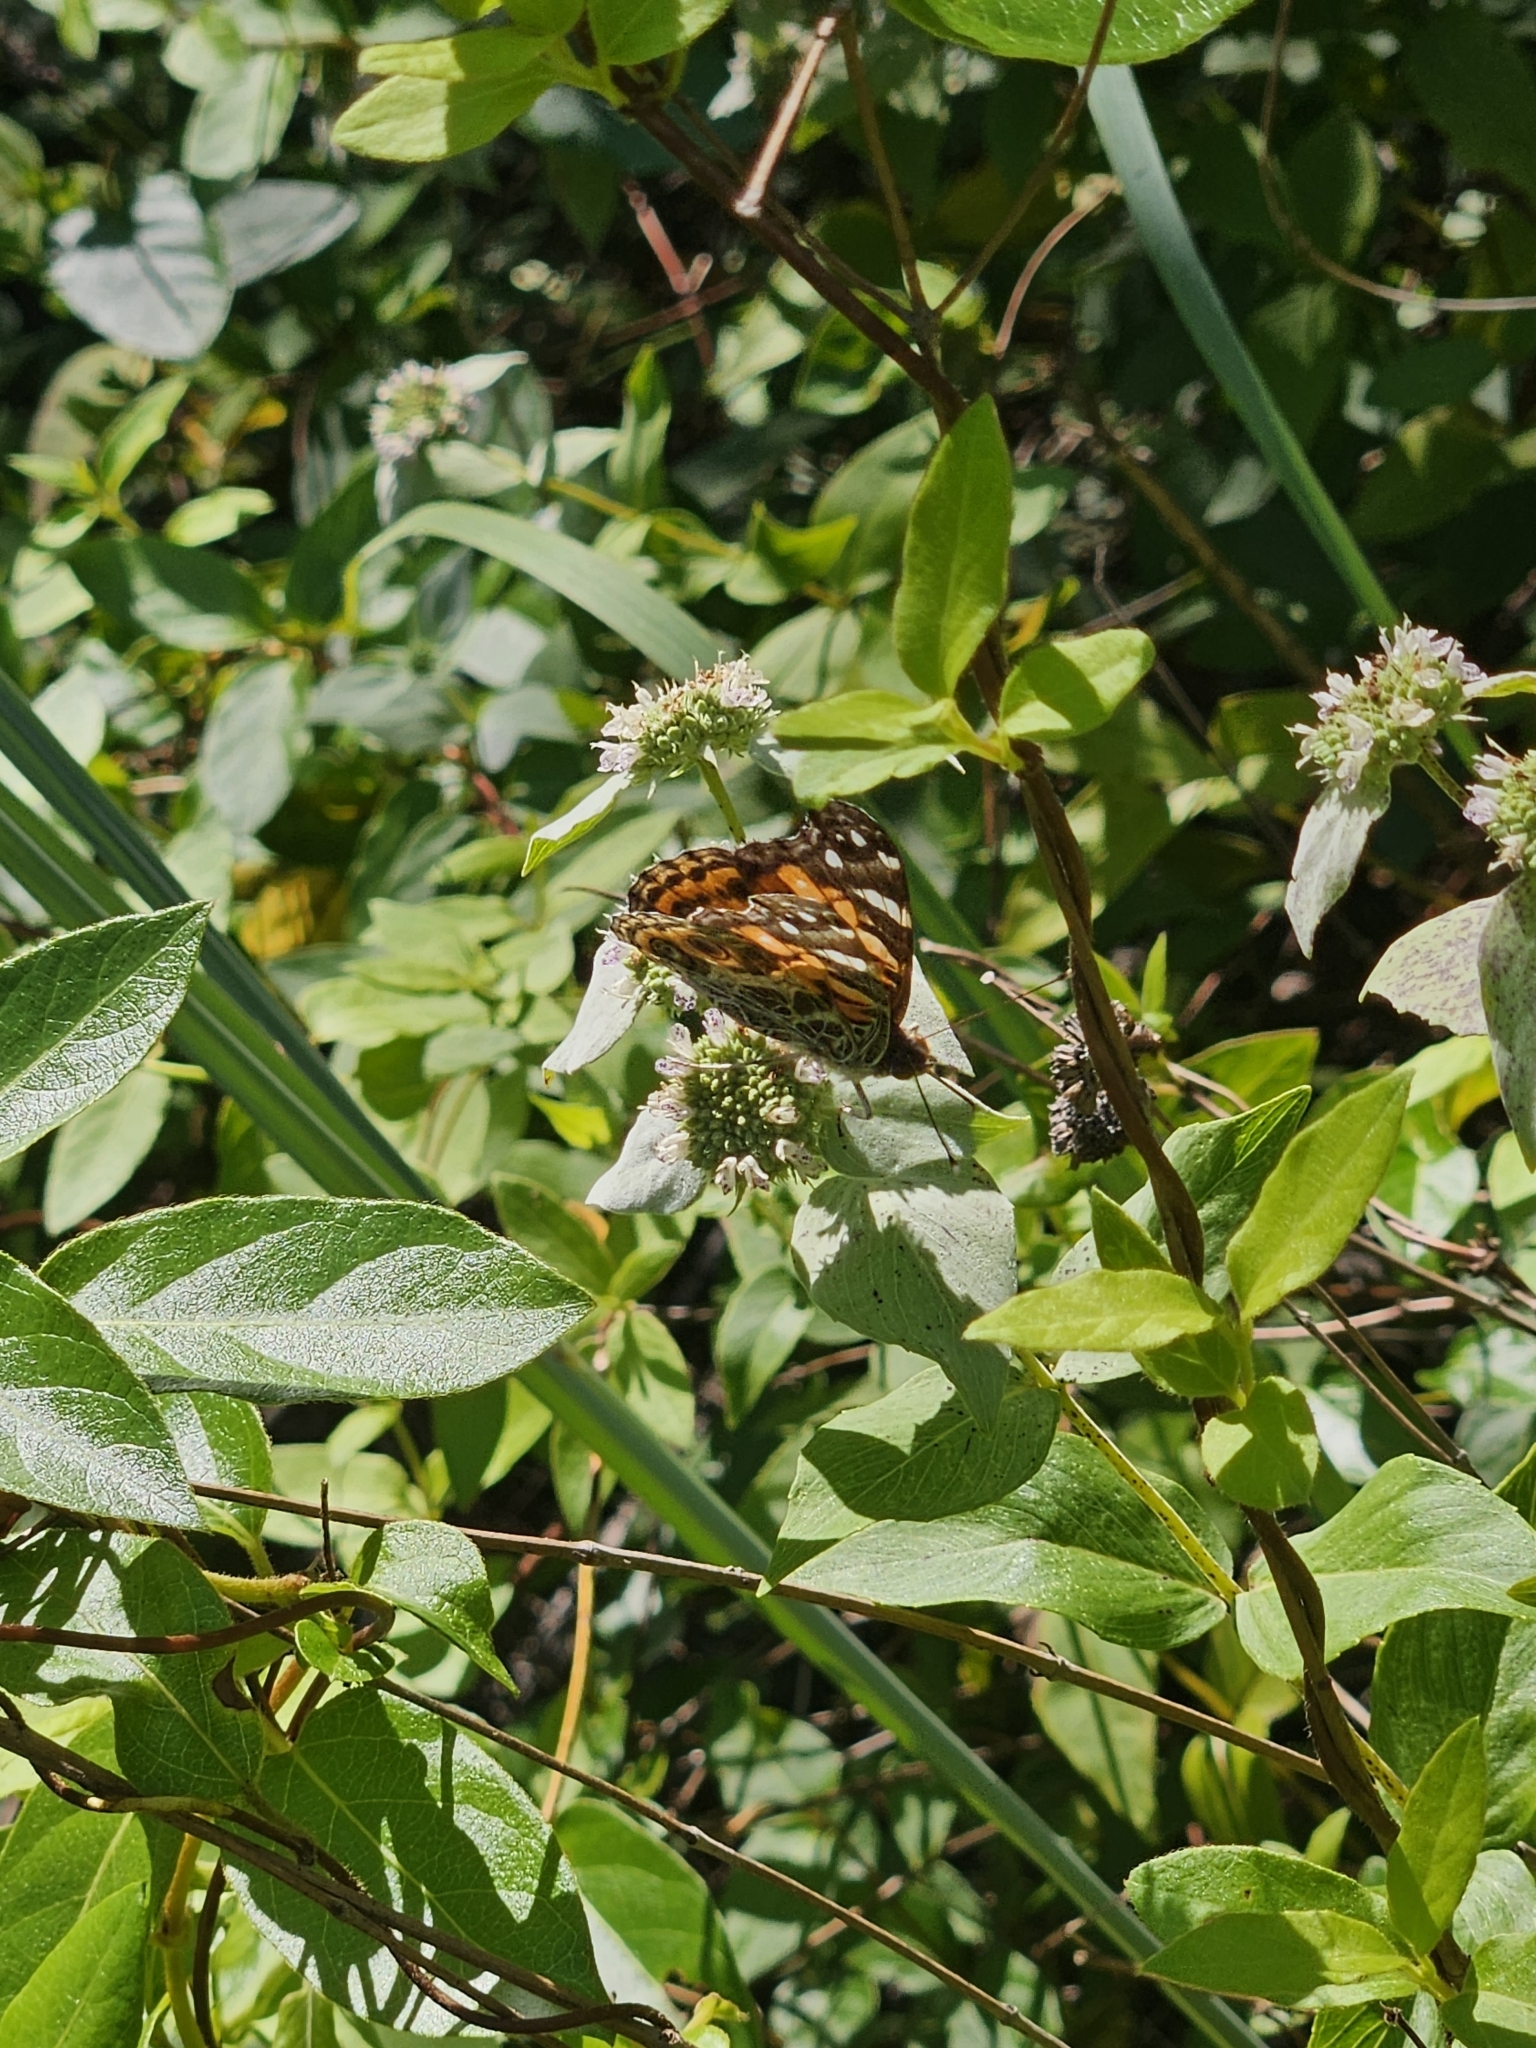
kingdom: Animalia
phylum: Arthropoda
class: Insecta
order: Lepidoptera
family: Nymphalidae
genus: Vanessa
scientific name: Vanessa virginiensis
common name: American lady
